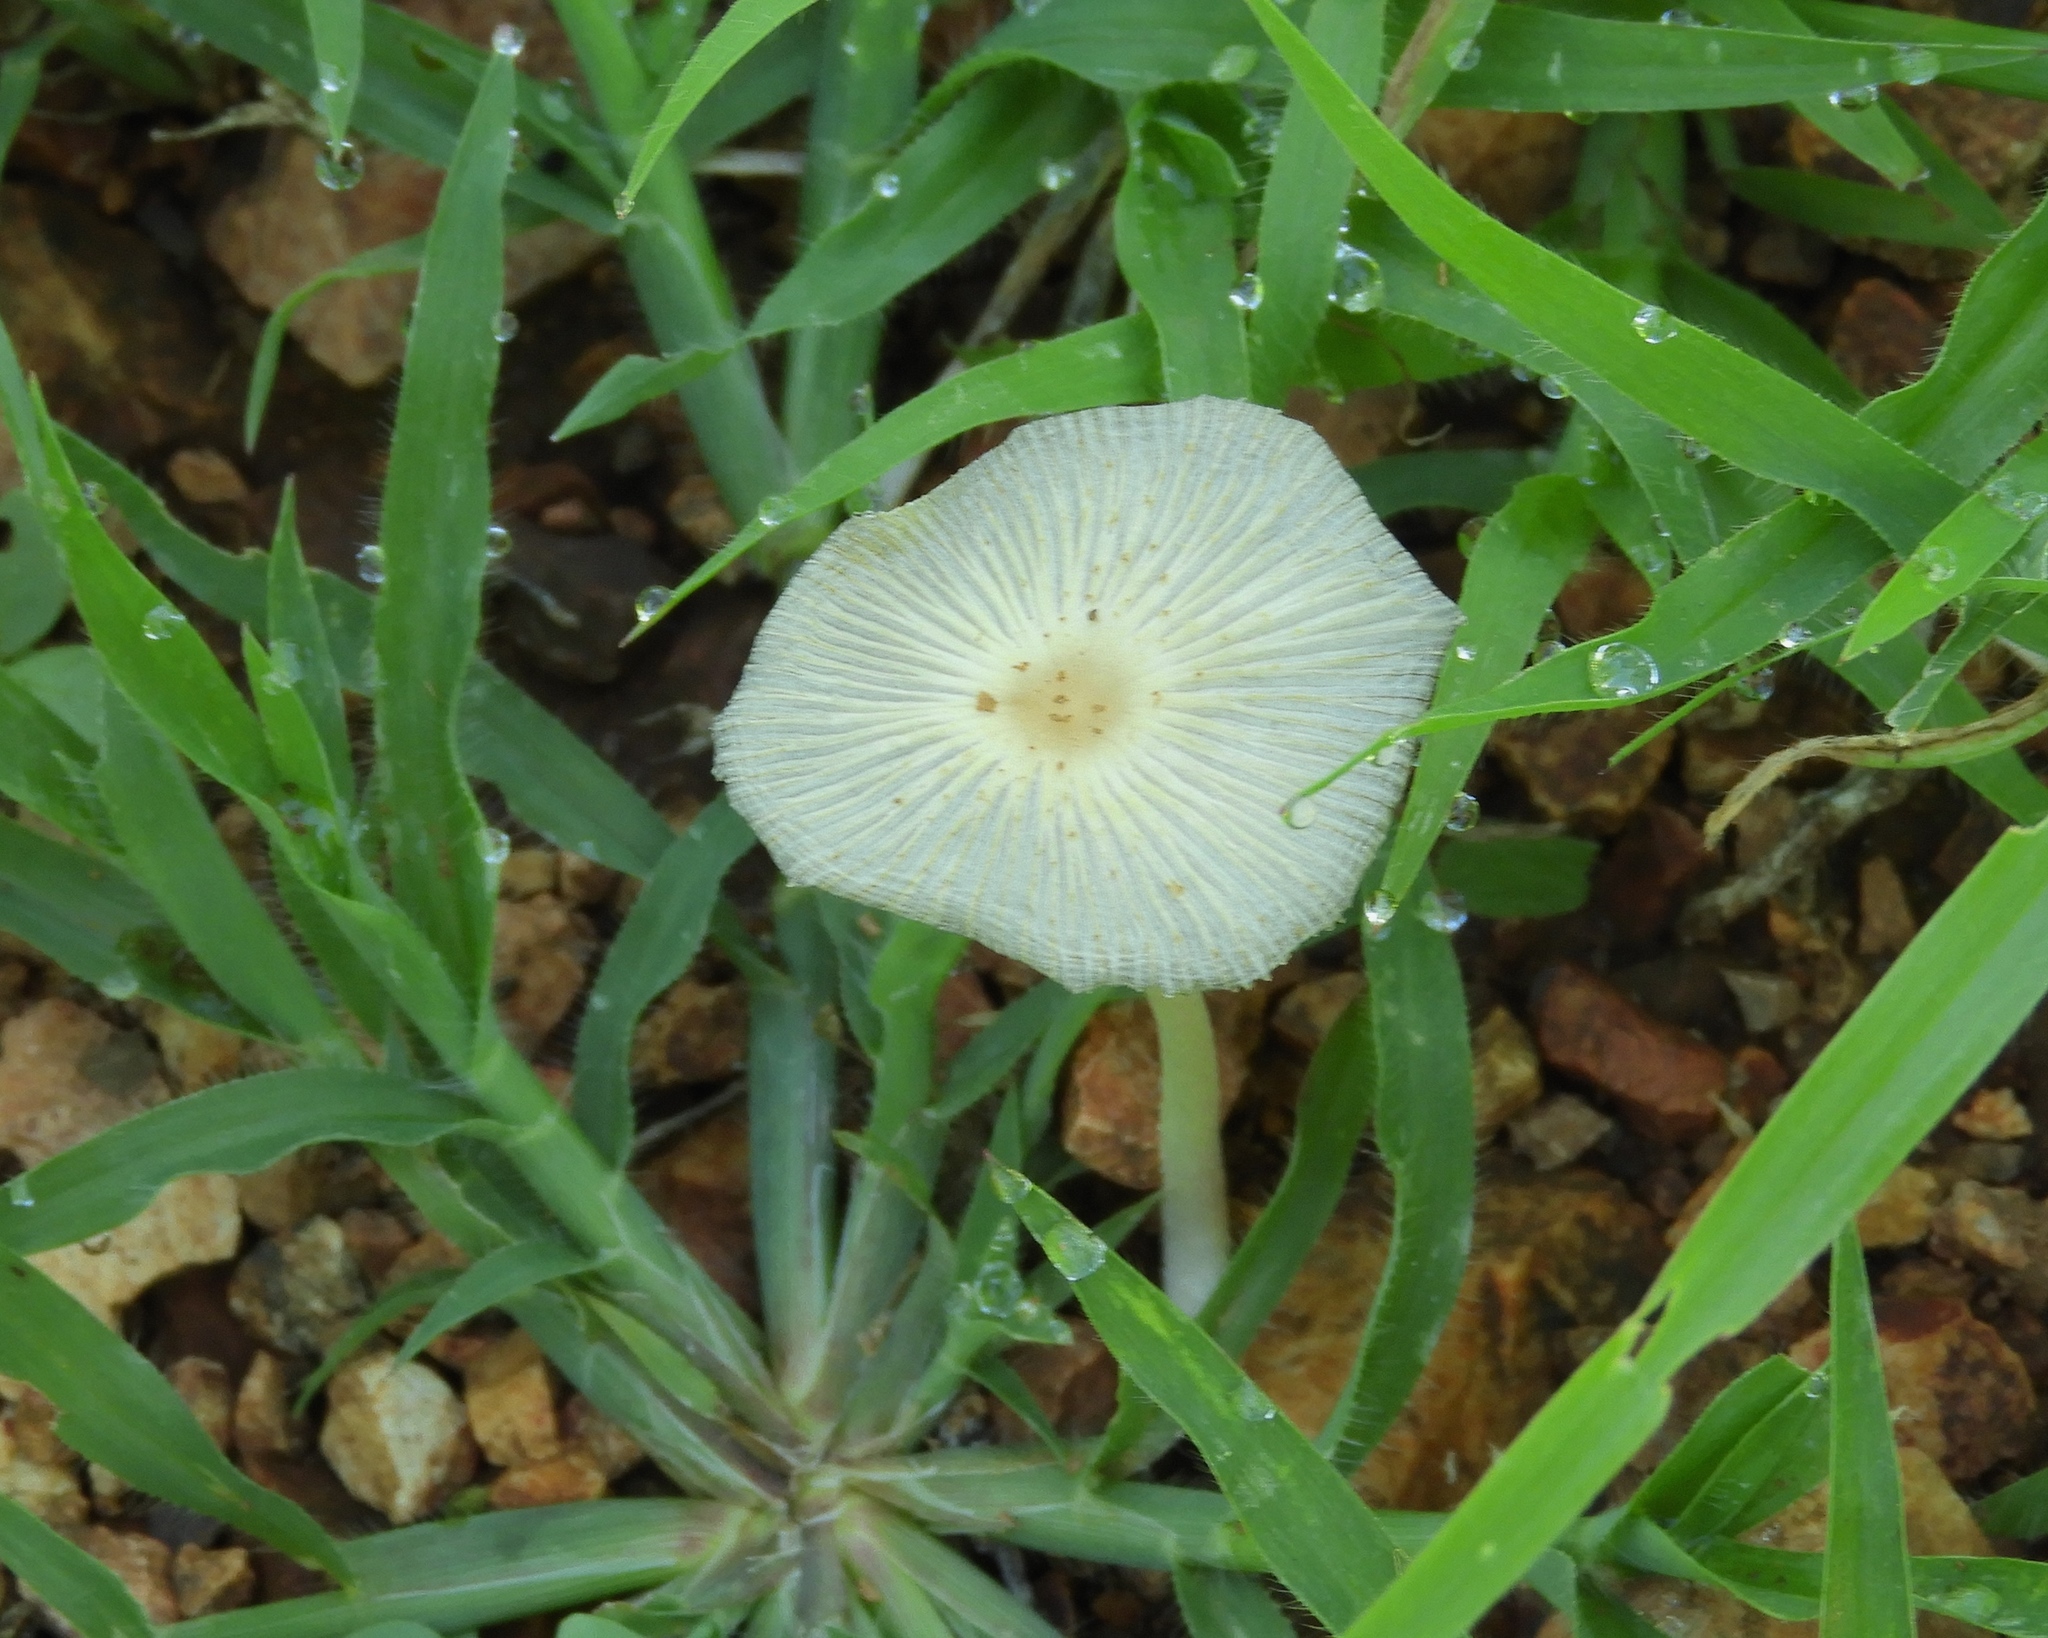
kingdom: Fungi
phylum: Basidiomycota
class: Agaricomycetes
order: Agaricales
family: Psathyrellaceae
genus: Coprinopsis
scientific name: Coprinopsis
